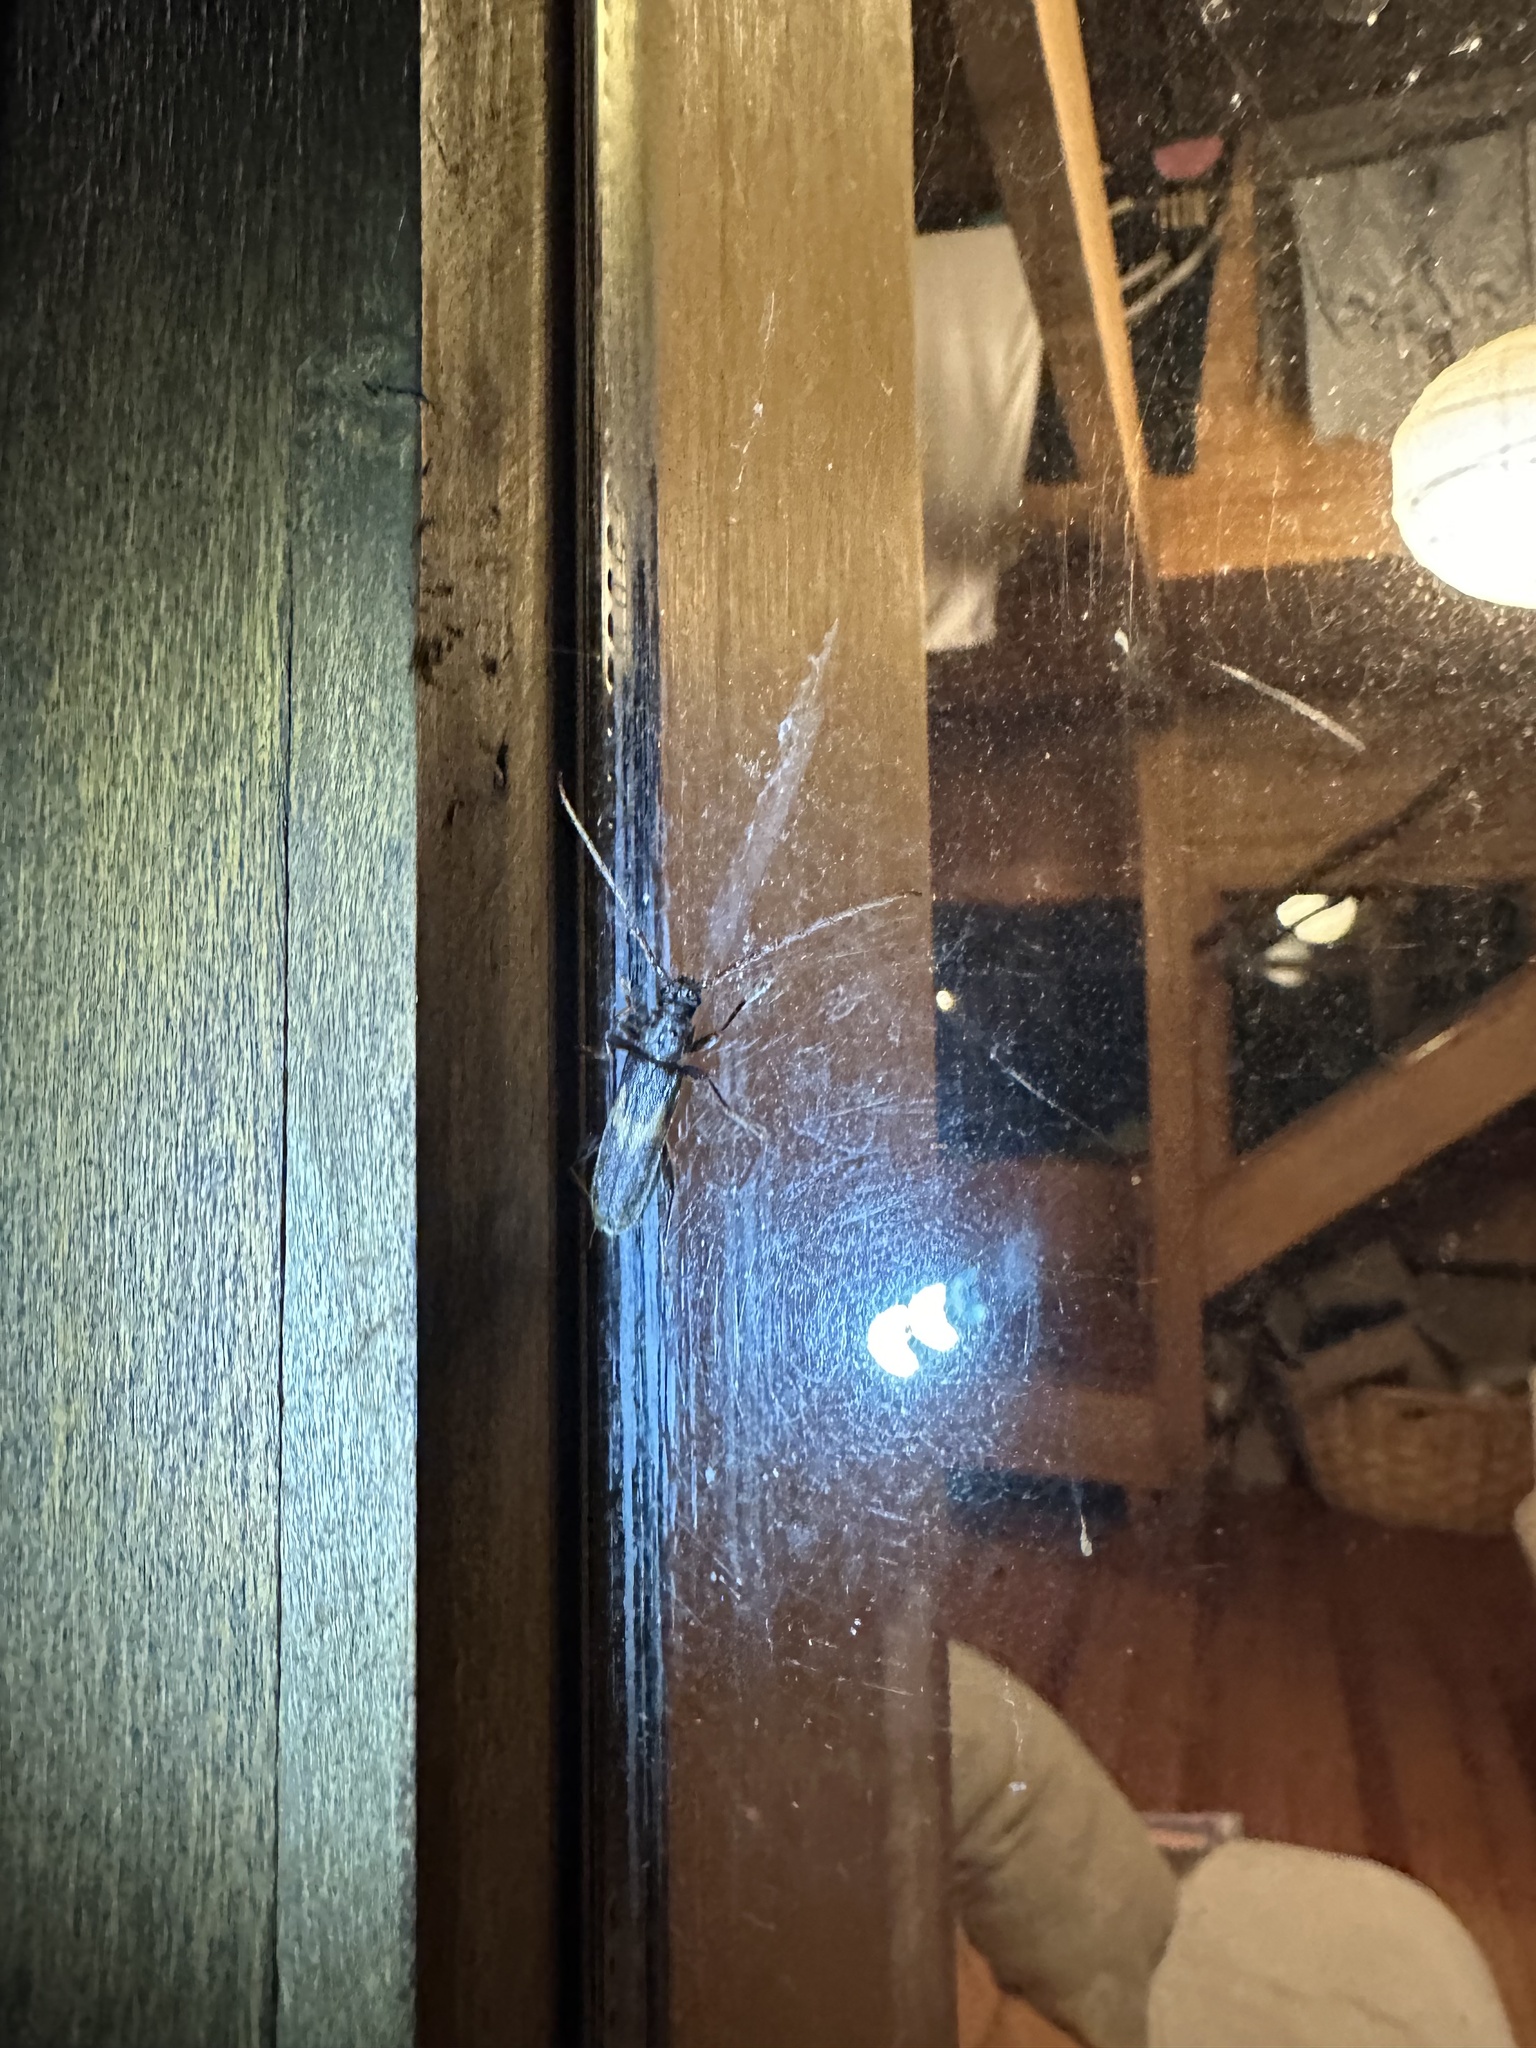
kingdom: Animalia
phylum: Arthropoda
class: Insecta
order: Coleoptera
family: Cerambycidae
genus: Grammicosum
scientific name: Grammicosum flavofasciatum
